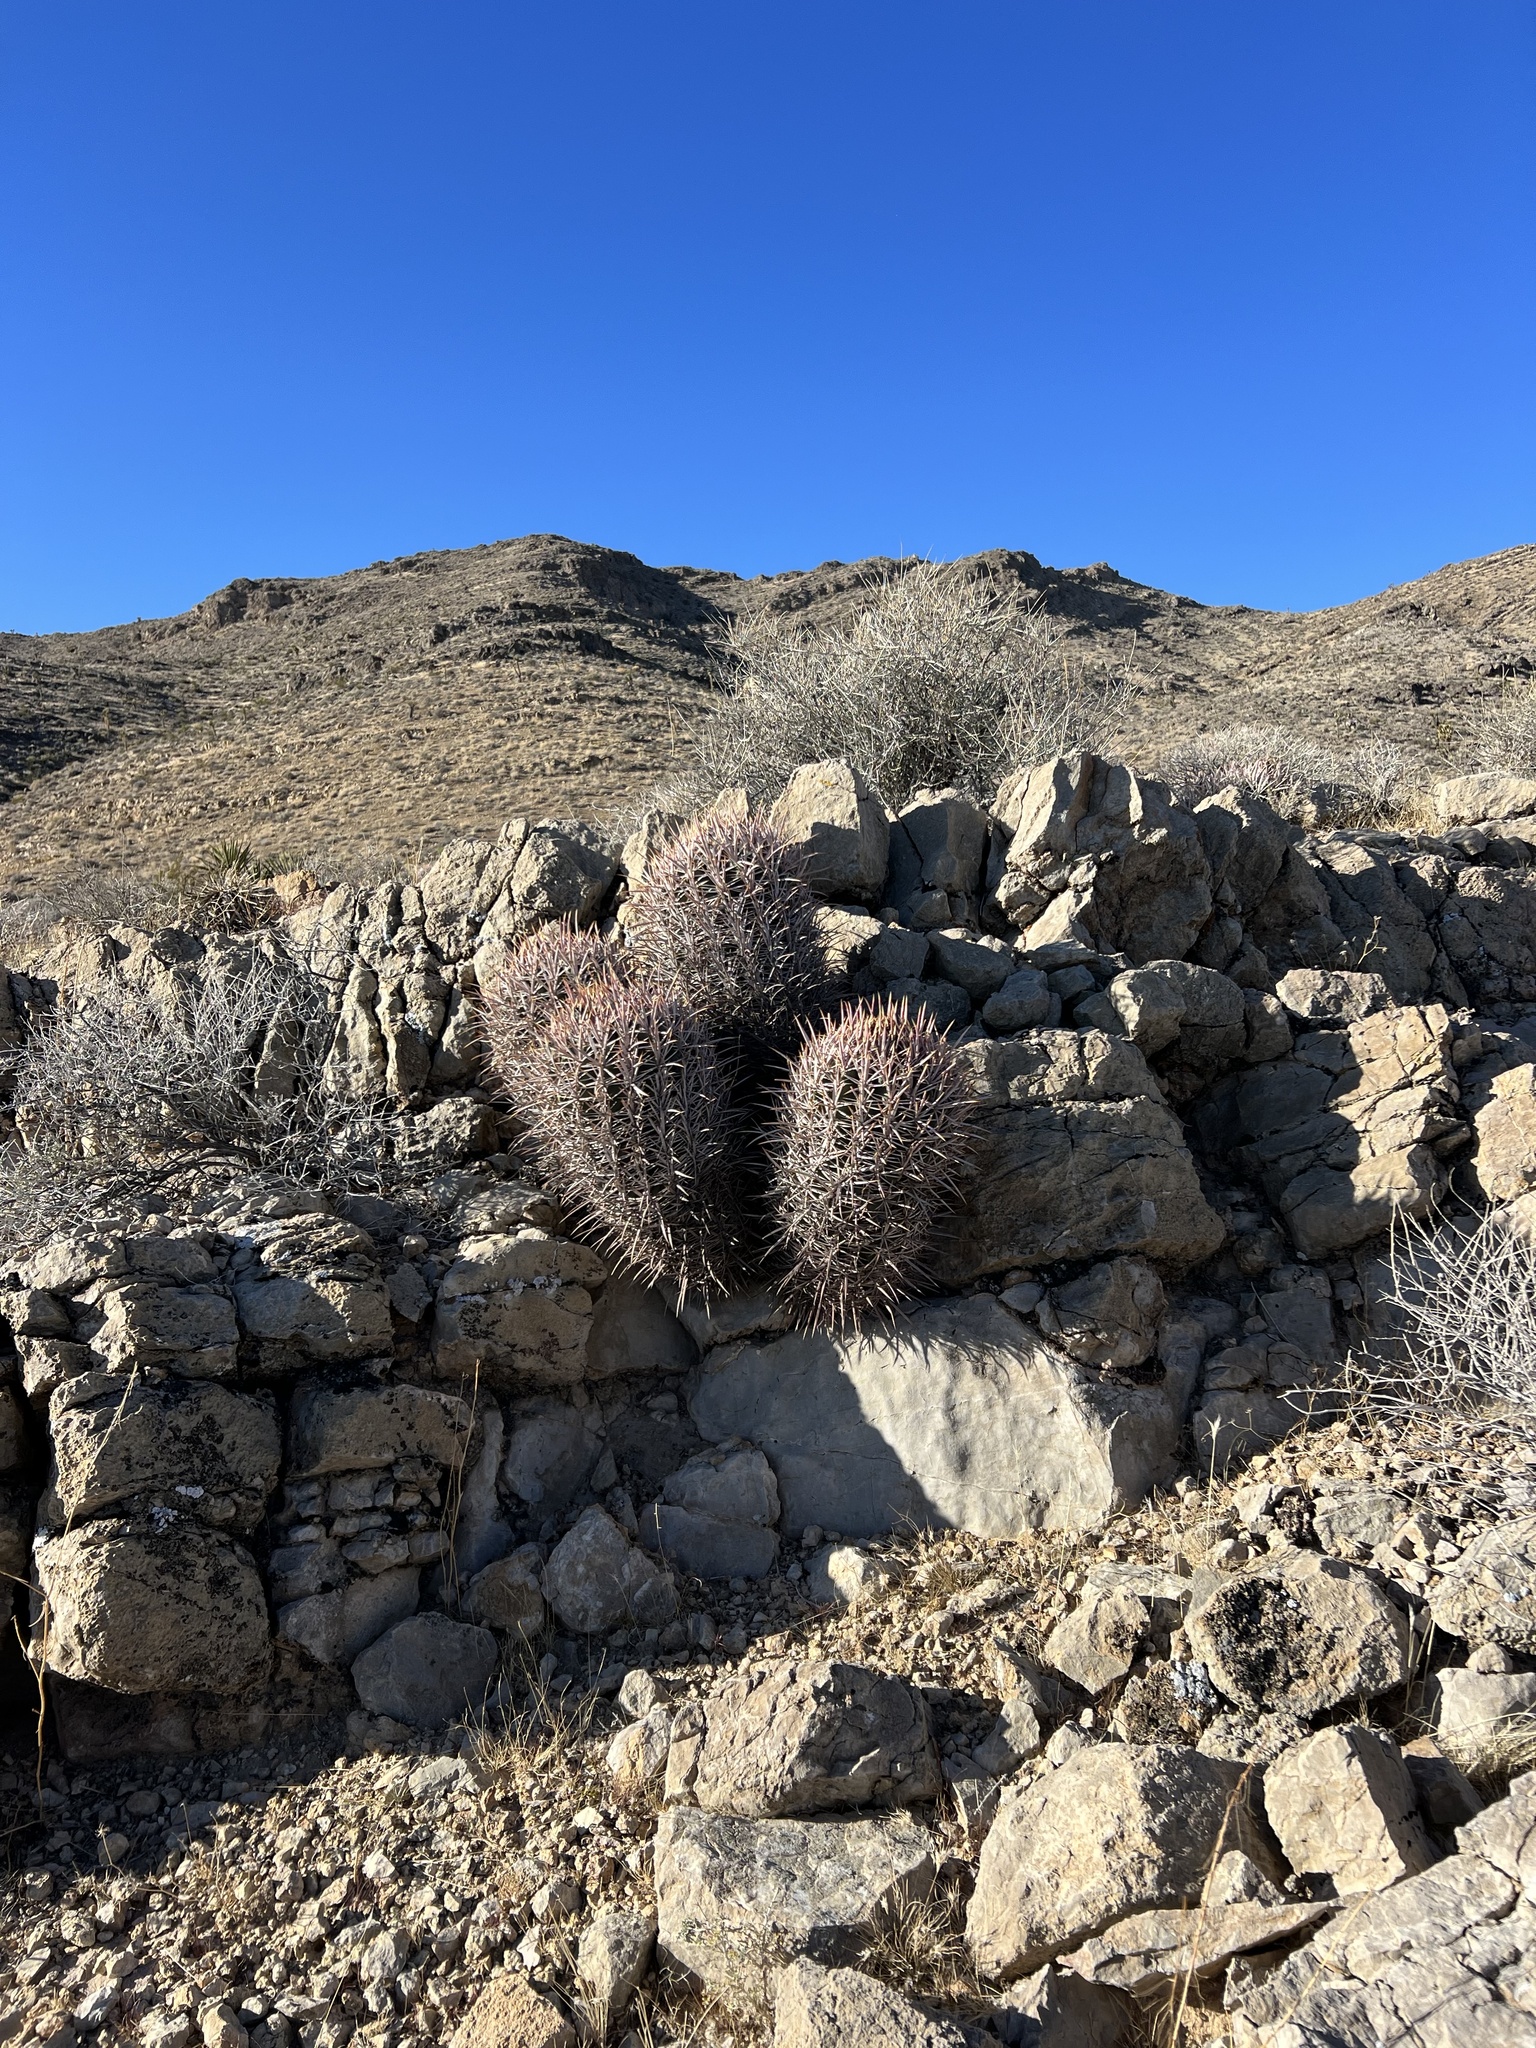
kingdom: Plantae
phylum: Tracheophyta
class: Magnoliopsida
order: Caryophyllales
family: Cactaceae
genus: Echinocactus
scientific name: Echinocactus polycephalus
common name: Cottontop cactus
